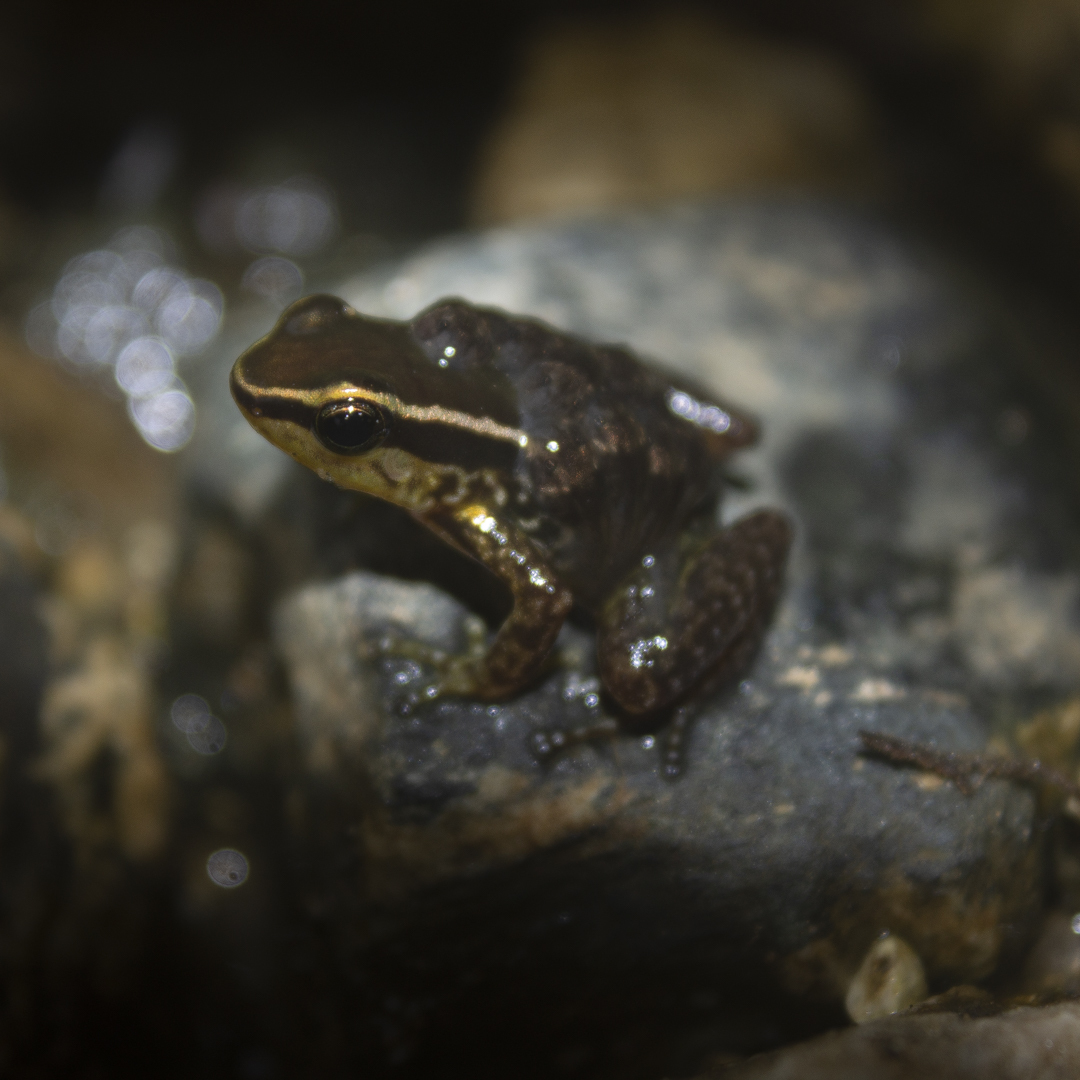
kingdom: Animalia
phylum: Chordata
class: Amphibia
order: Anura
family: Dendrobatidae
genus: Colostethus
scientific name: Colostethus ruthveni
